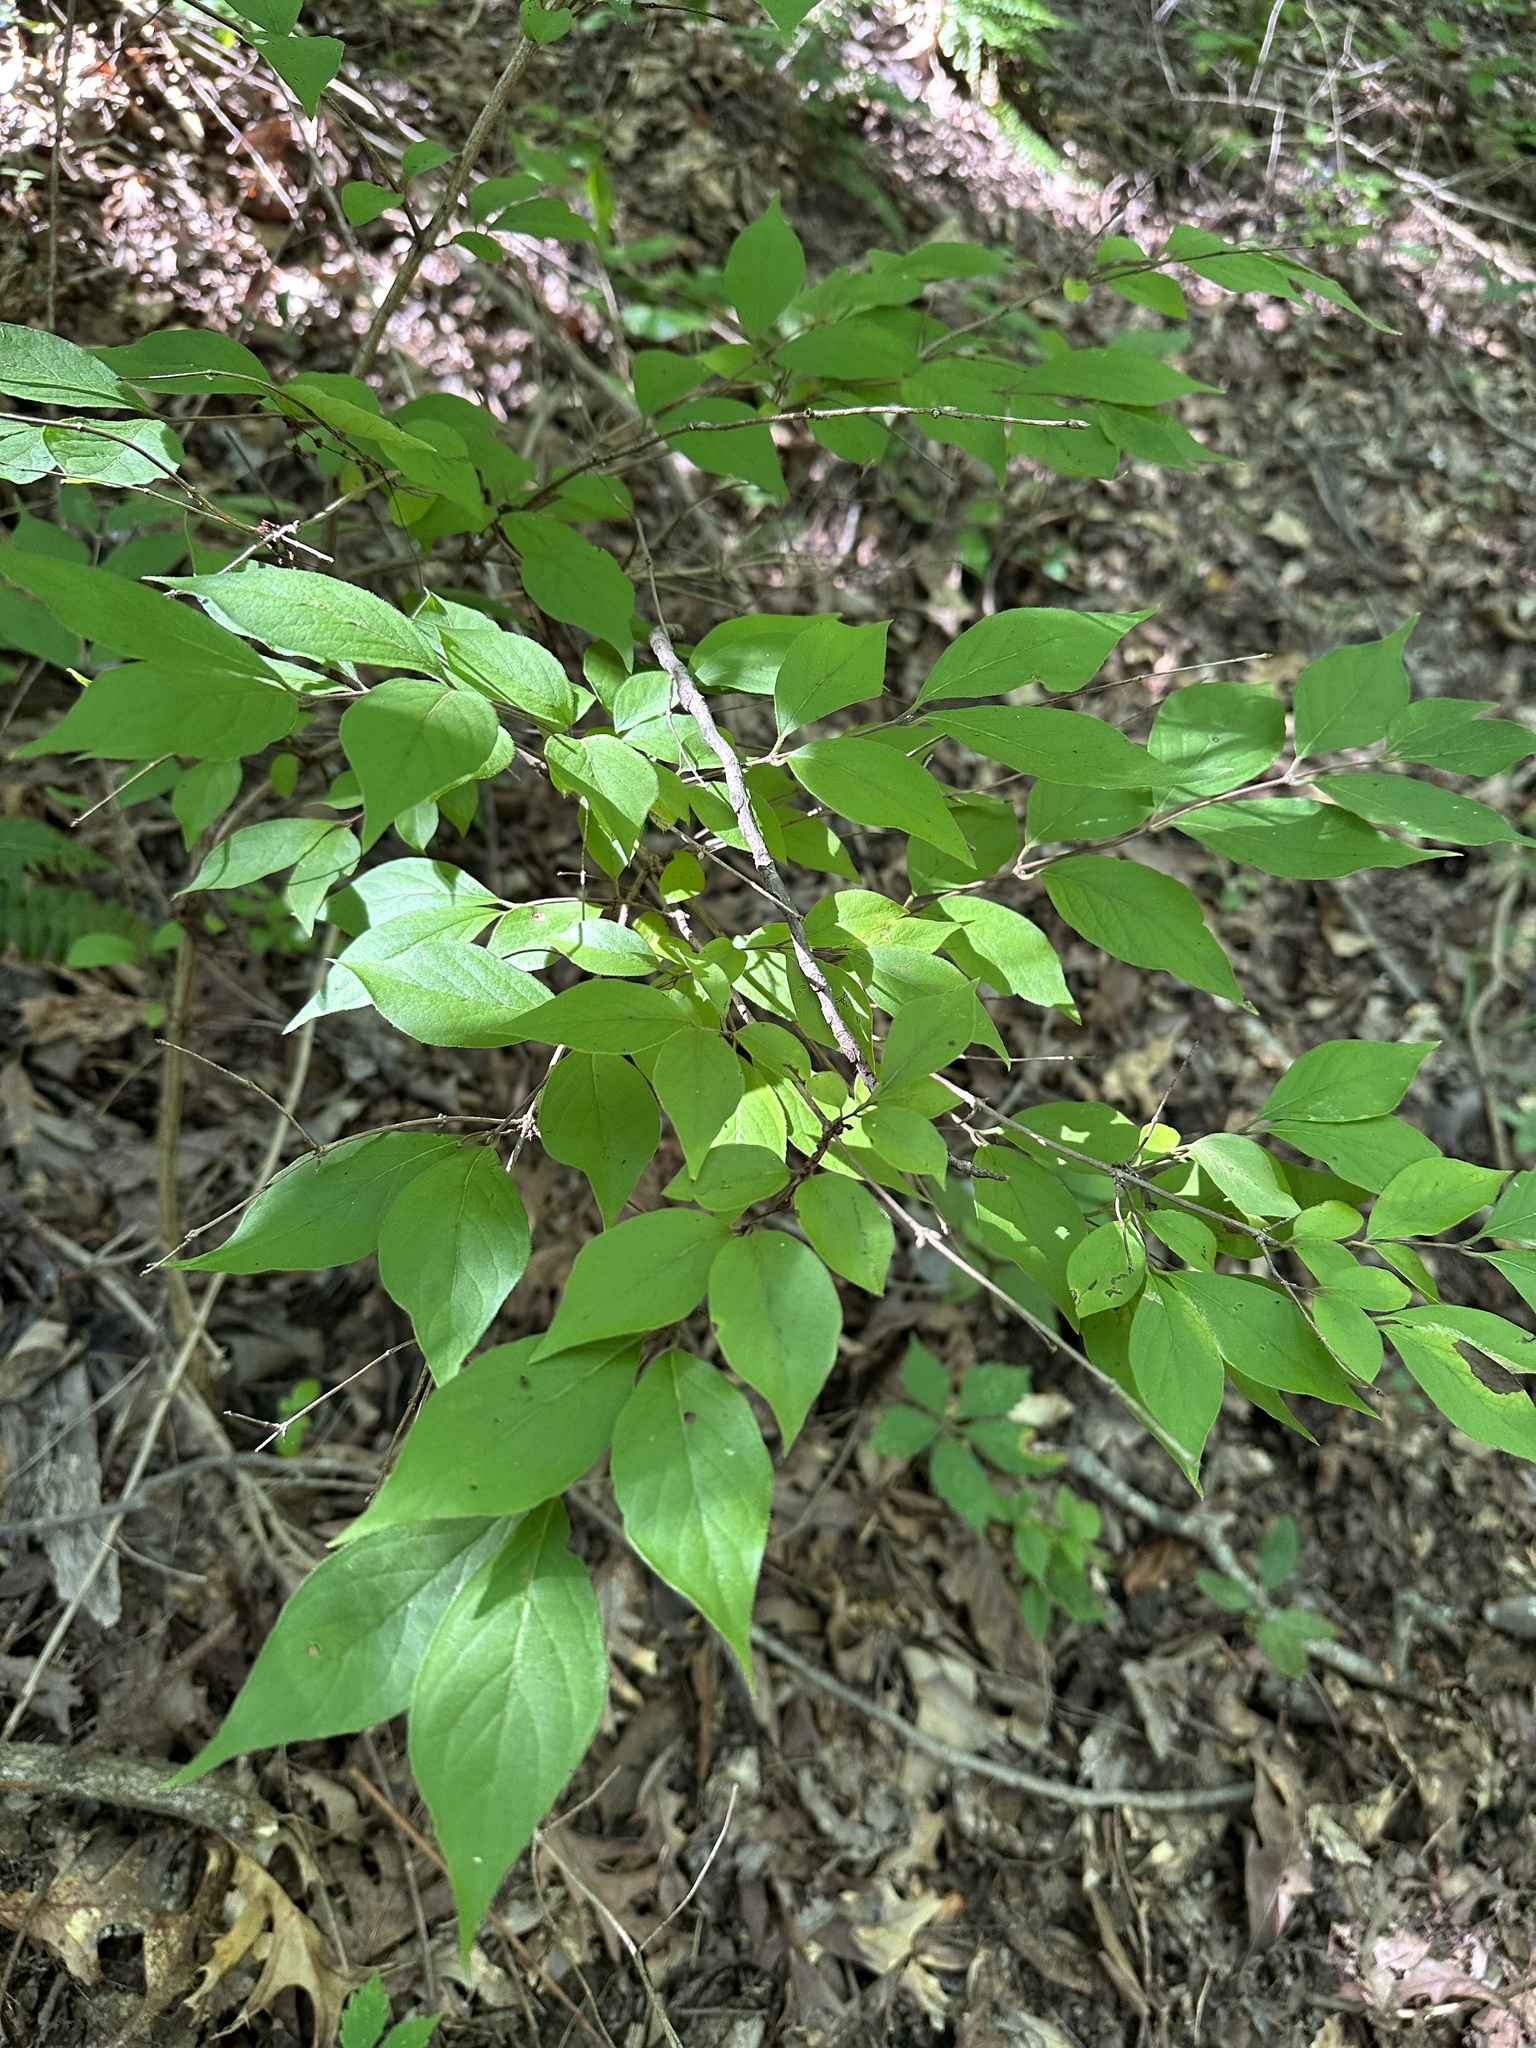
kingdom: Plantae
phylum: Tracheophyta
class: Magnoliopsida
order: Dipsacales
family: Caprifoliaceae
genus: Lonicera
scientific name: Lonicera maackii
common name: Amur honeysuckle
